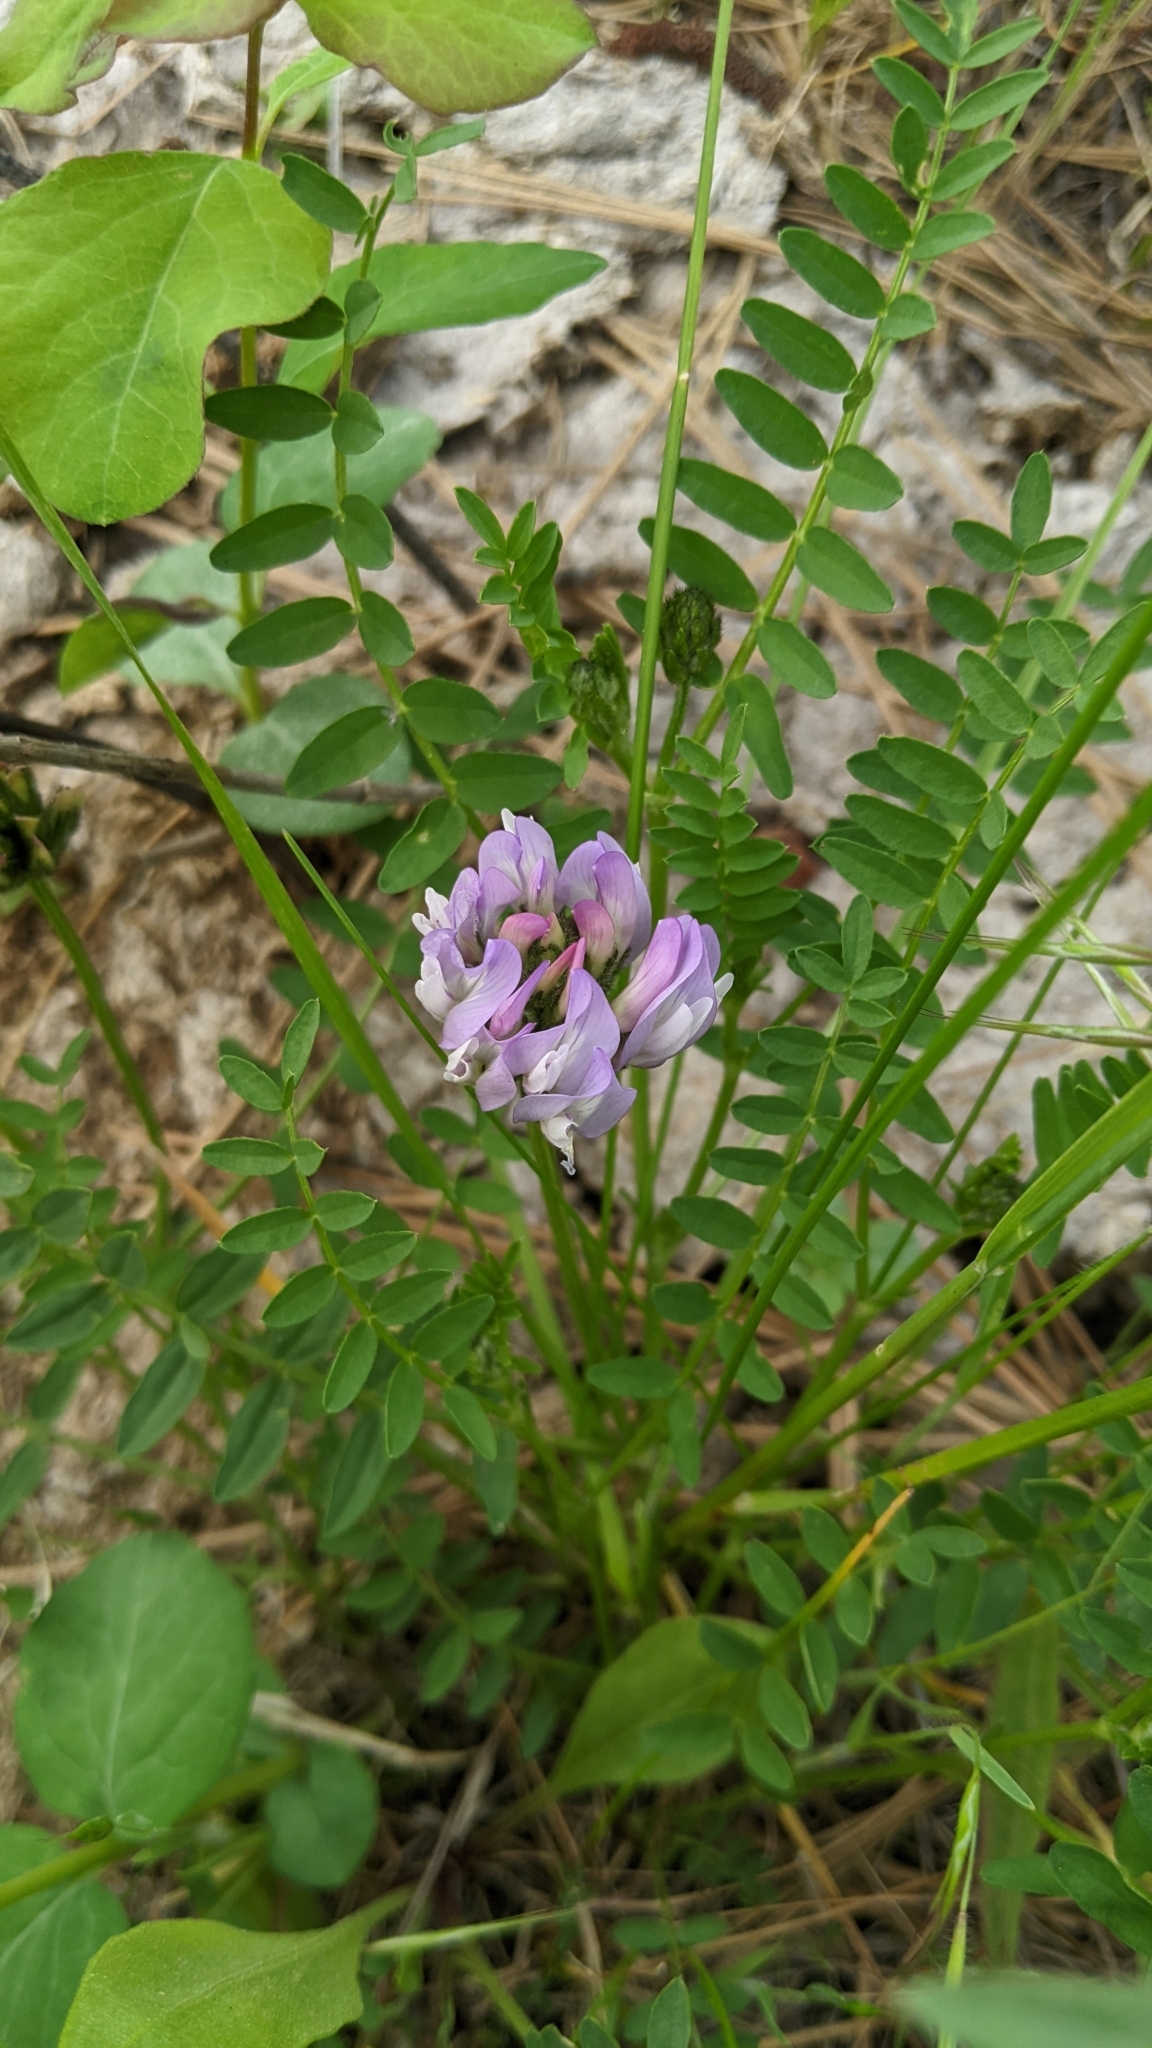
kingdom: Plantae
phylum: Tracheophyta
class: Magnoliopsida
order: Fabales
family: Fabaceae
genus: Astragalus
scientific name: Astragalus agrestis
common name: Field milk-vetch
